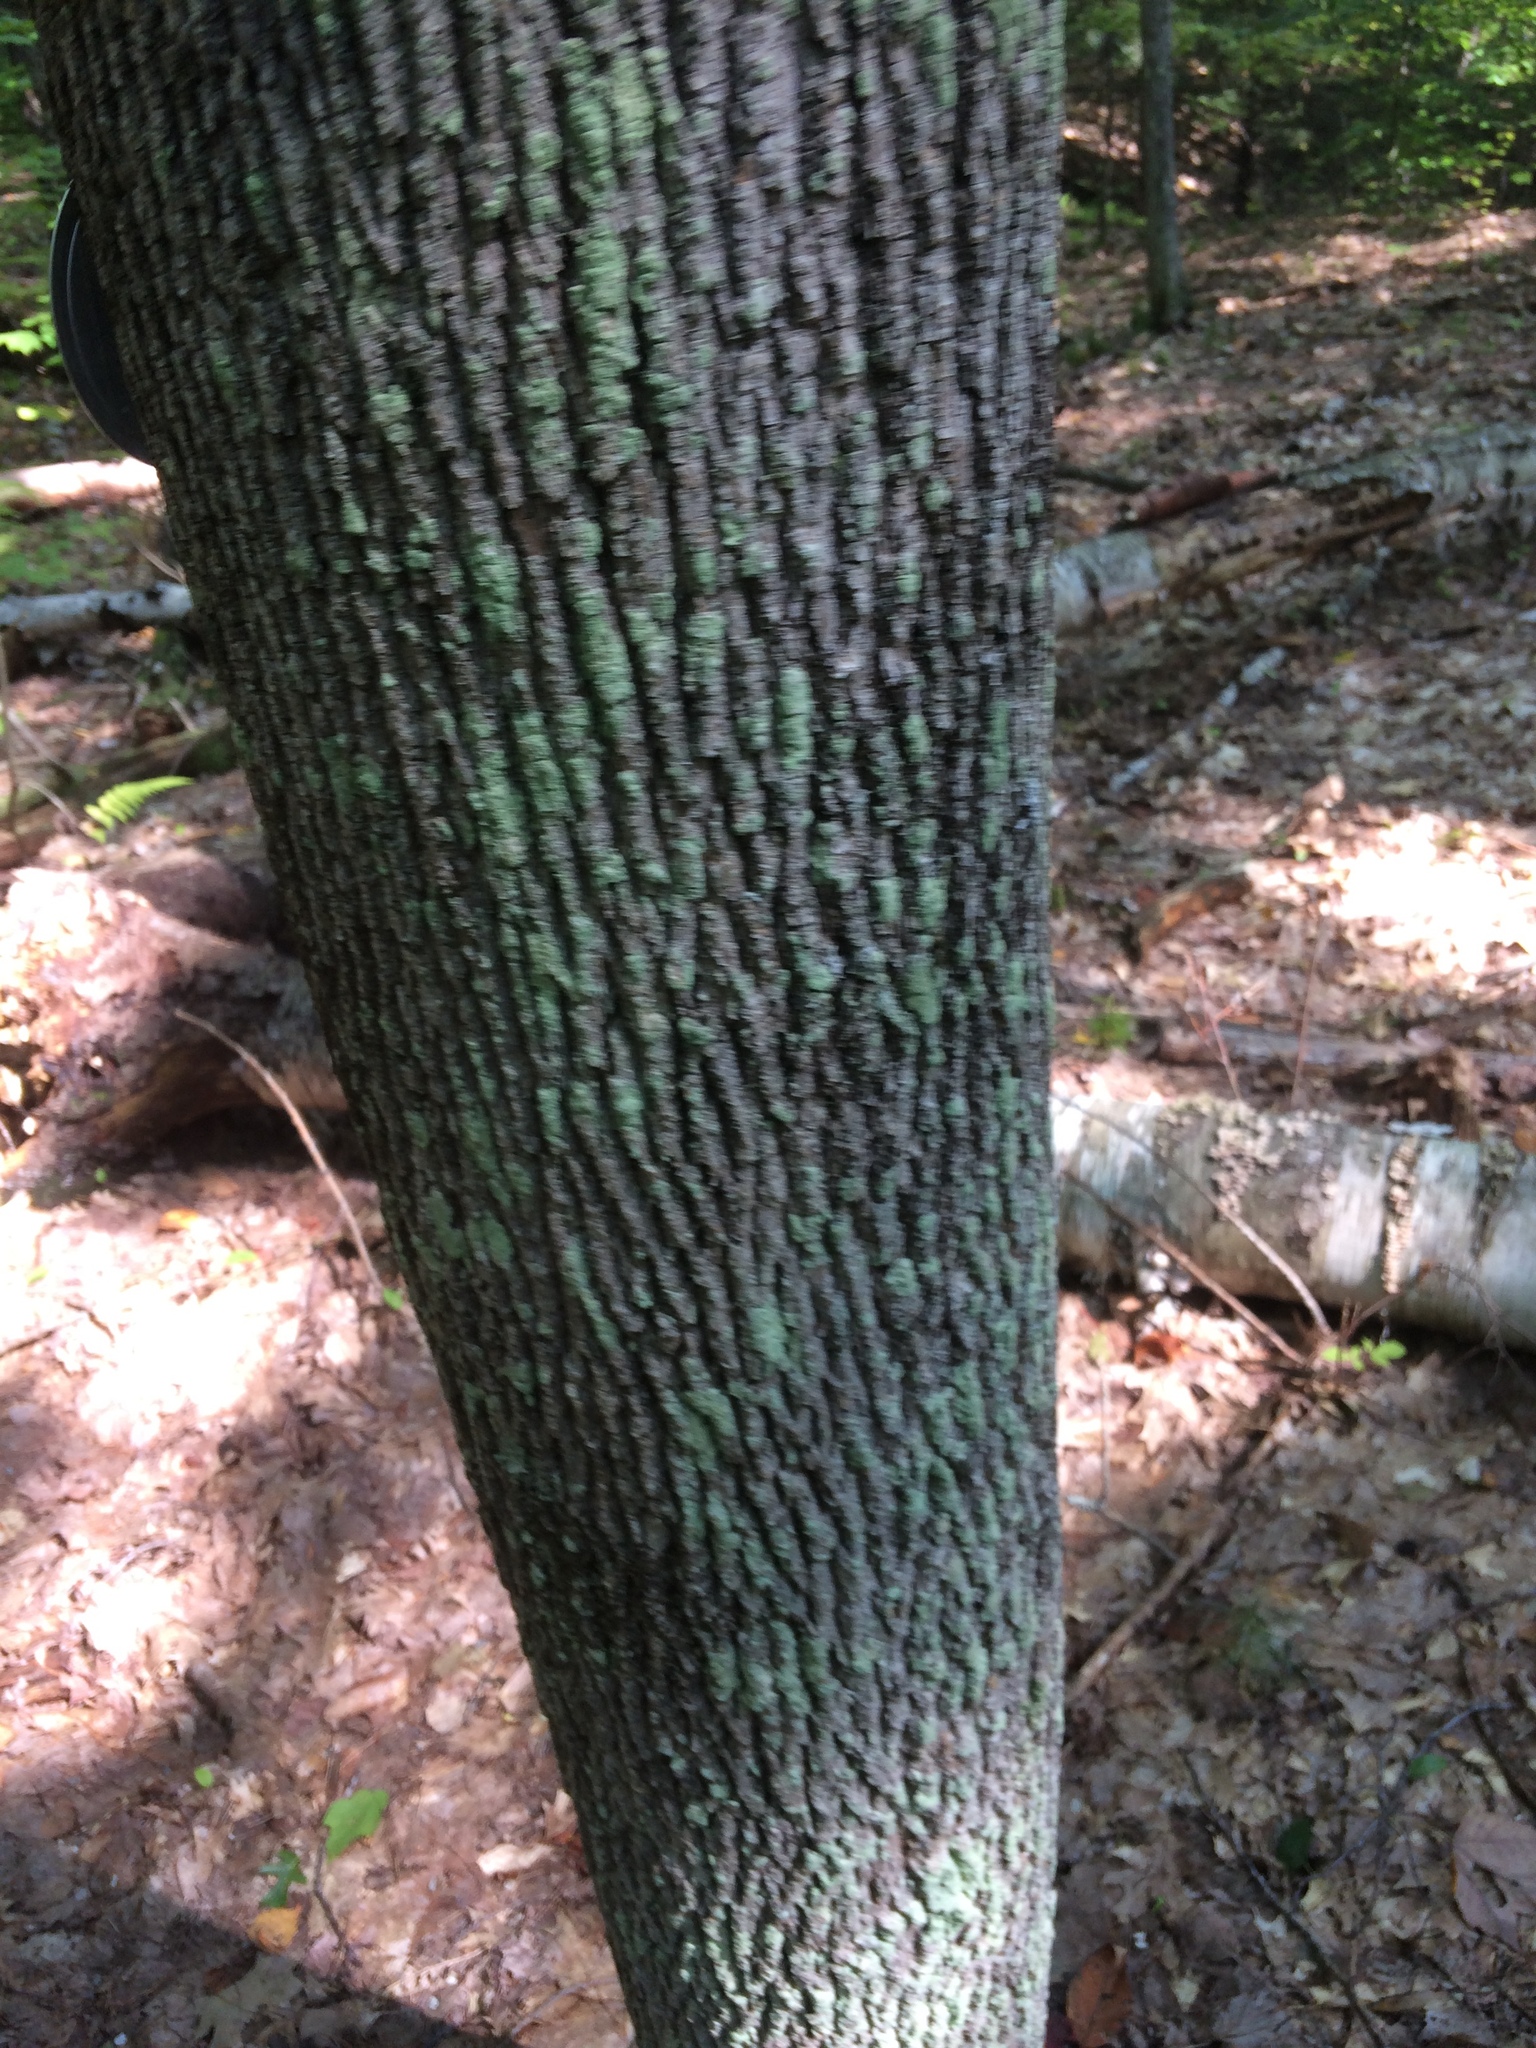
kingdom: Plantae
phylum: Tracheophyta
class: Magnoliopsida
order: Lamiales
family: Oleaceae
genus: Fraxinus
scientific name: Fraxinus americana
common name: White ash
